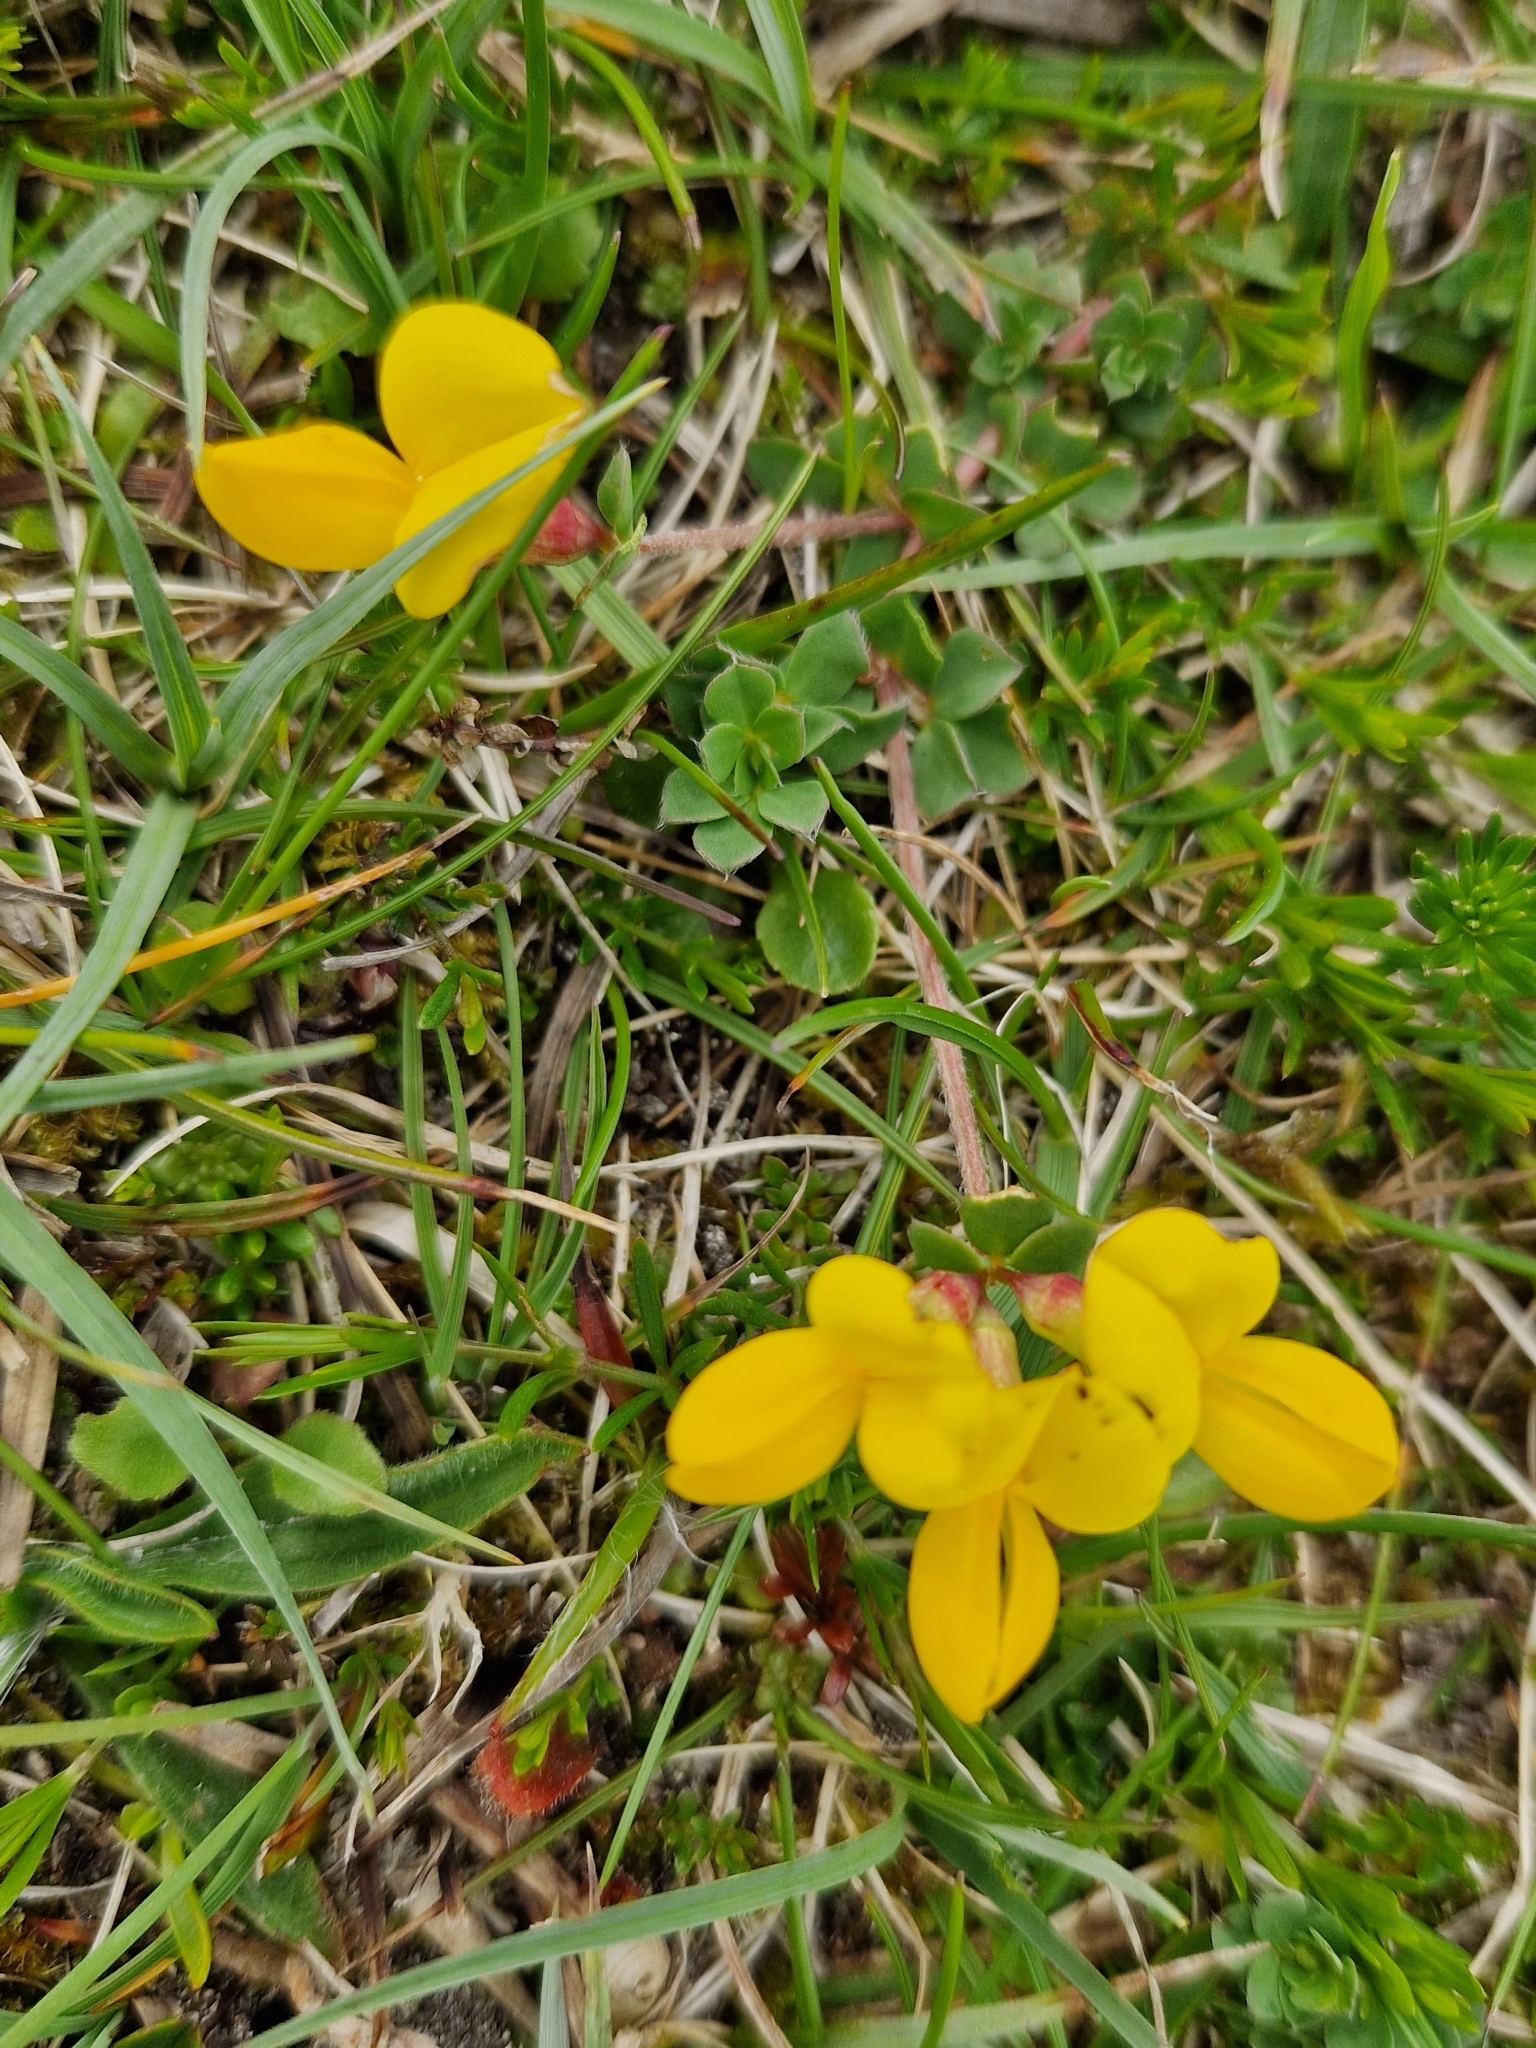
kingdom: Plantae
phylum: Tracheophyta
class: Magnoliopsida
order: Fabales
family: Fabaceae
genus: Lotus
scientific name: Lotus corniculatus
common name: Common bird's-foot-trefoil
